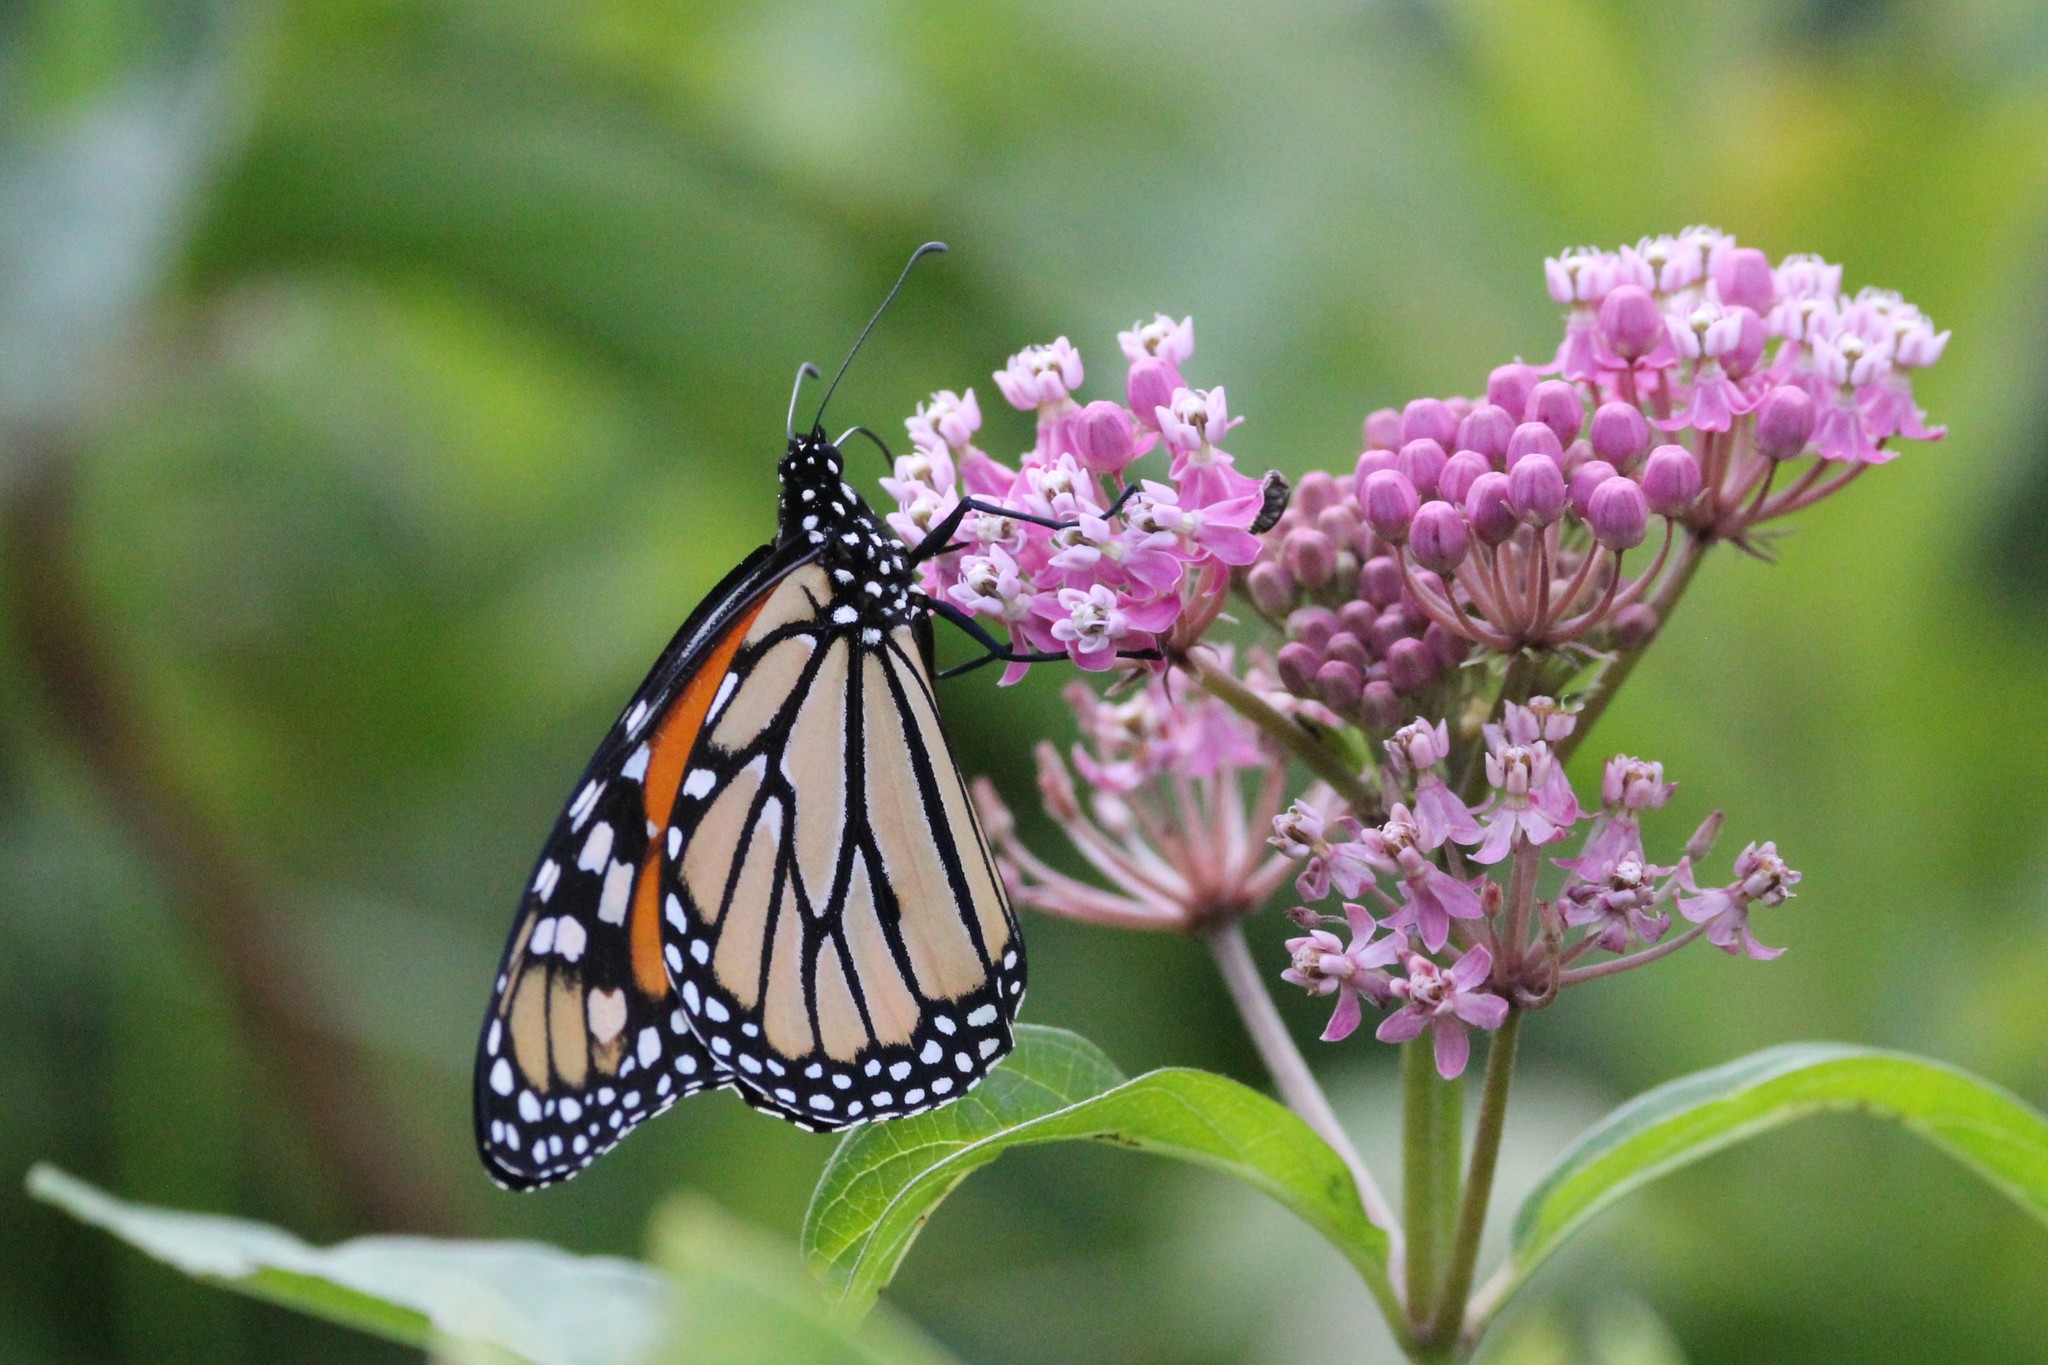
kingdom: Animalia
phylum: Arthropoda
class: Insecta
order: Lepidoptera
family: Nymphalidae
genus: Danaus
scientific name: Danaus plexippus
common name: Monarch
